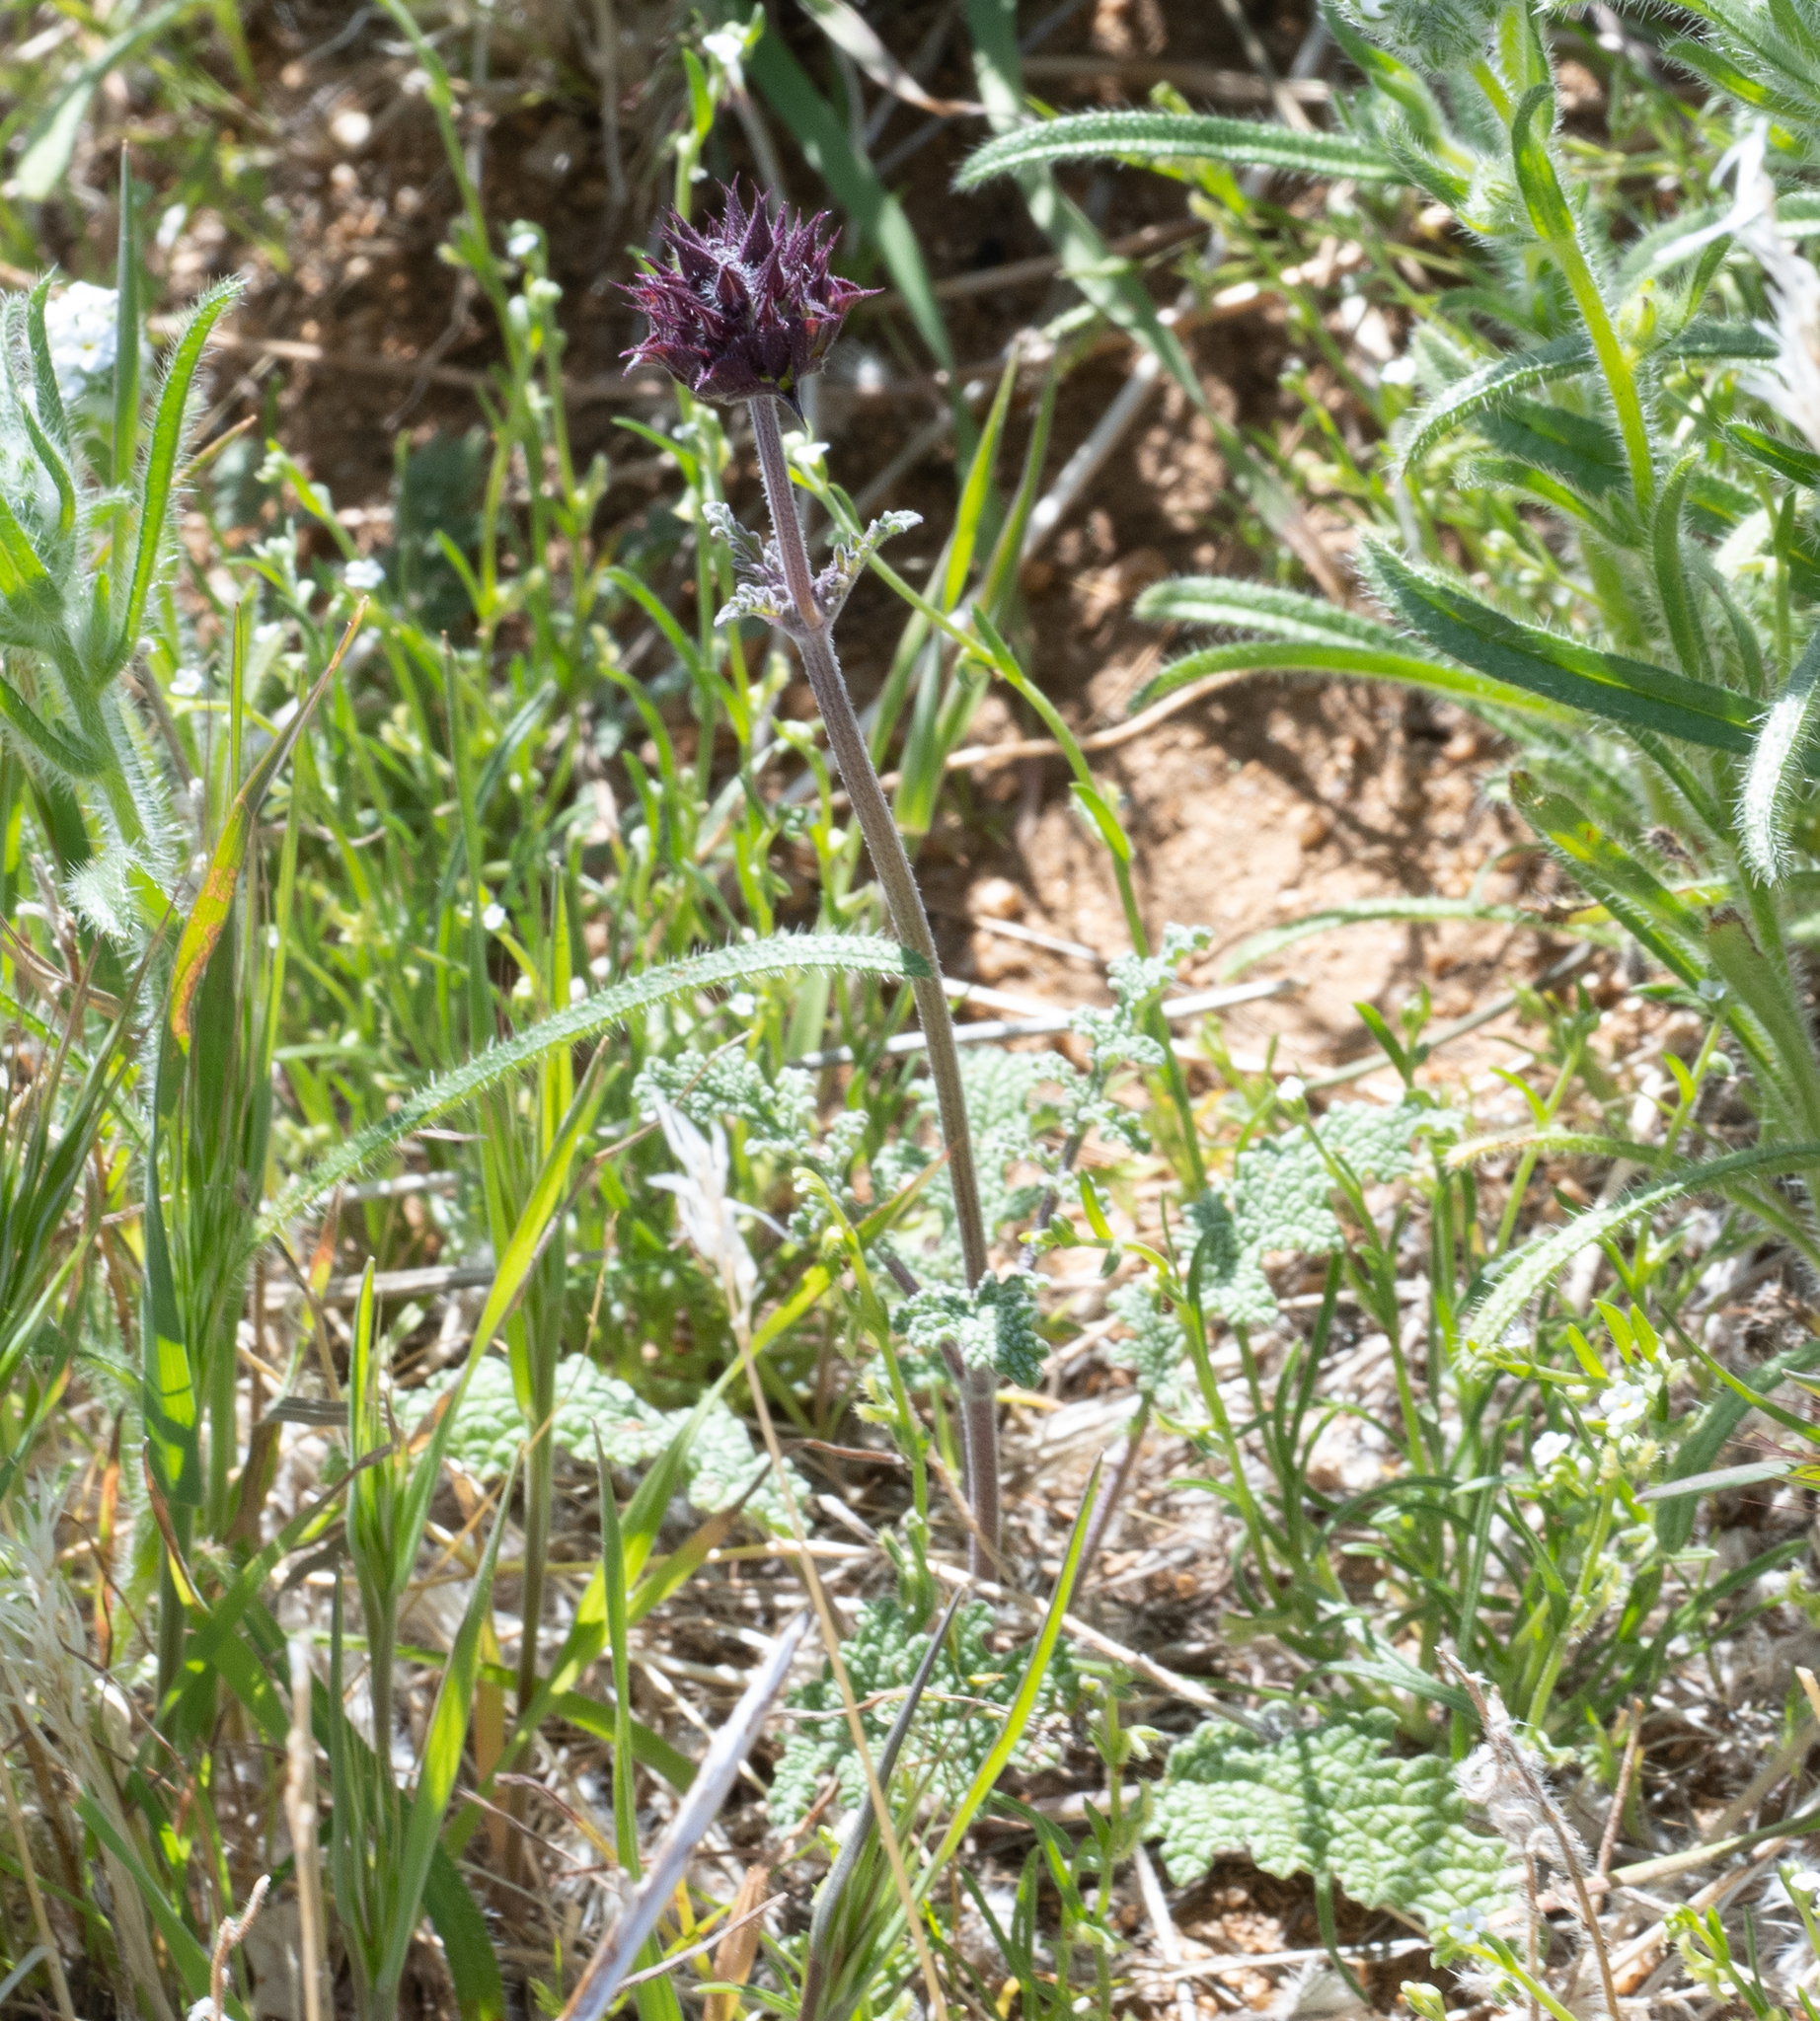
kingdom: Plantae
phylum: Tracheophyta
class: Magnoliopsida
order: Lamiales
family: Lamiaceae
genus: Salvia
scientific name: Salvia columbariae
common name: Chia
